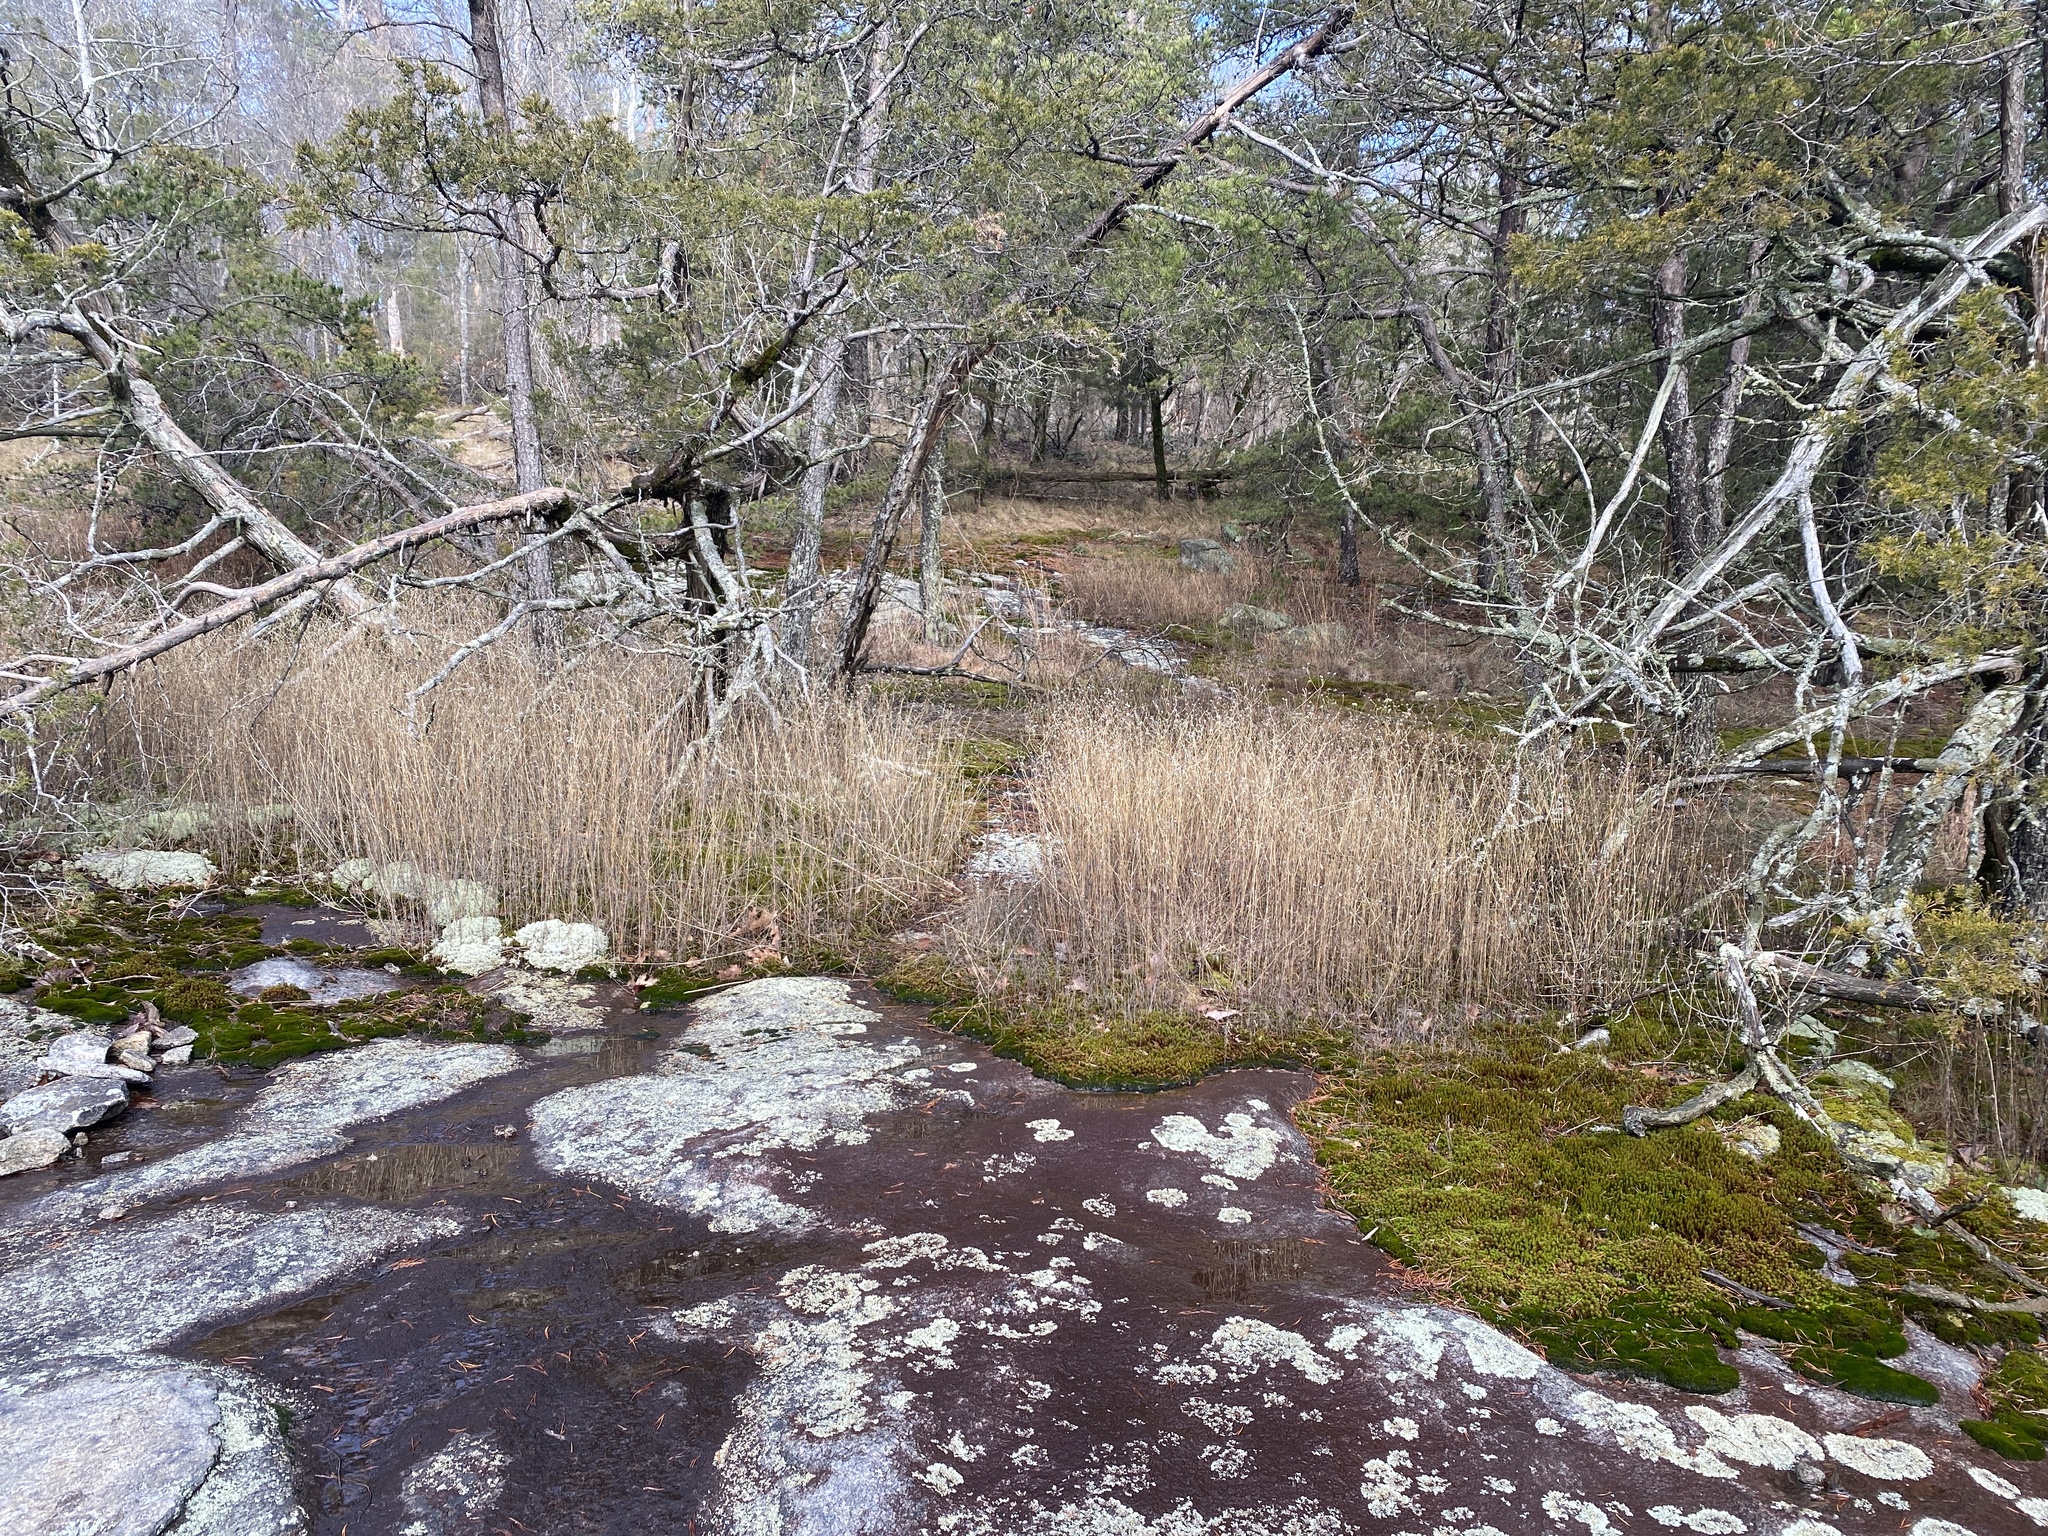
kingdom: Plantae
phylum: Tracheophyta
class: Magnoliopsida
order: Asterales
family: Asteraceae
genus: Helianthus
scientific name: Helianthus porteri
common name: Porter's sunflower
